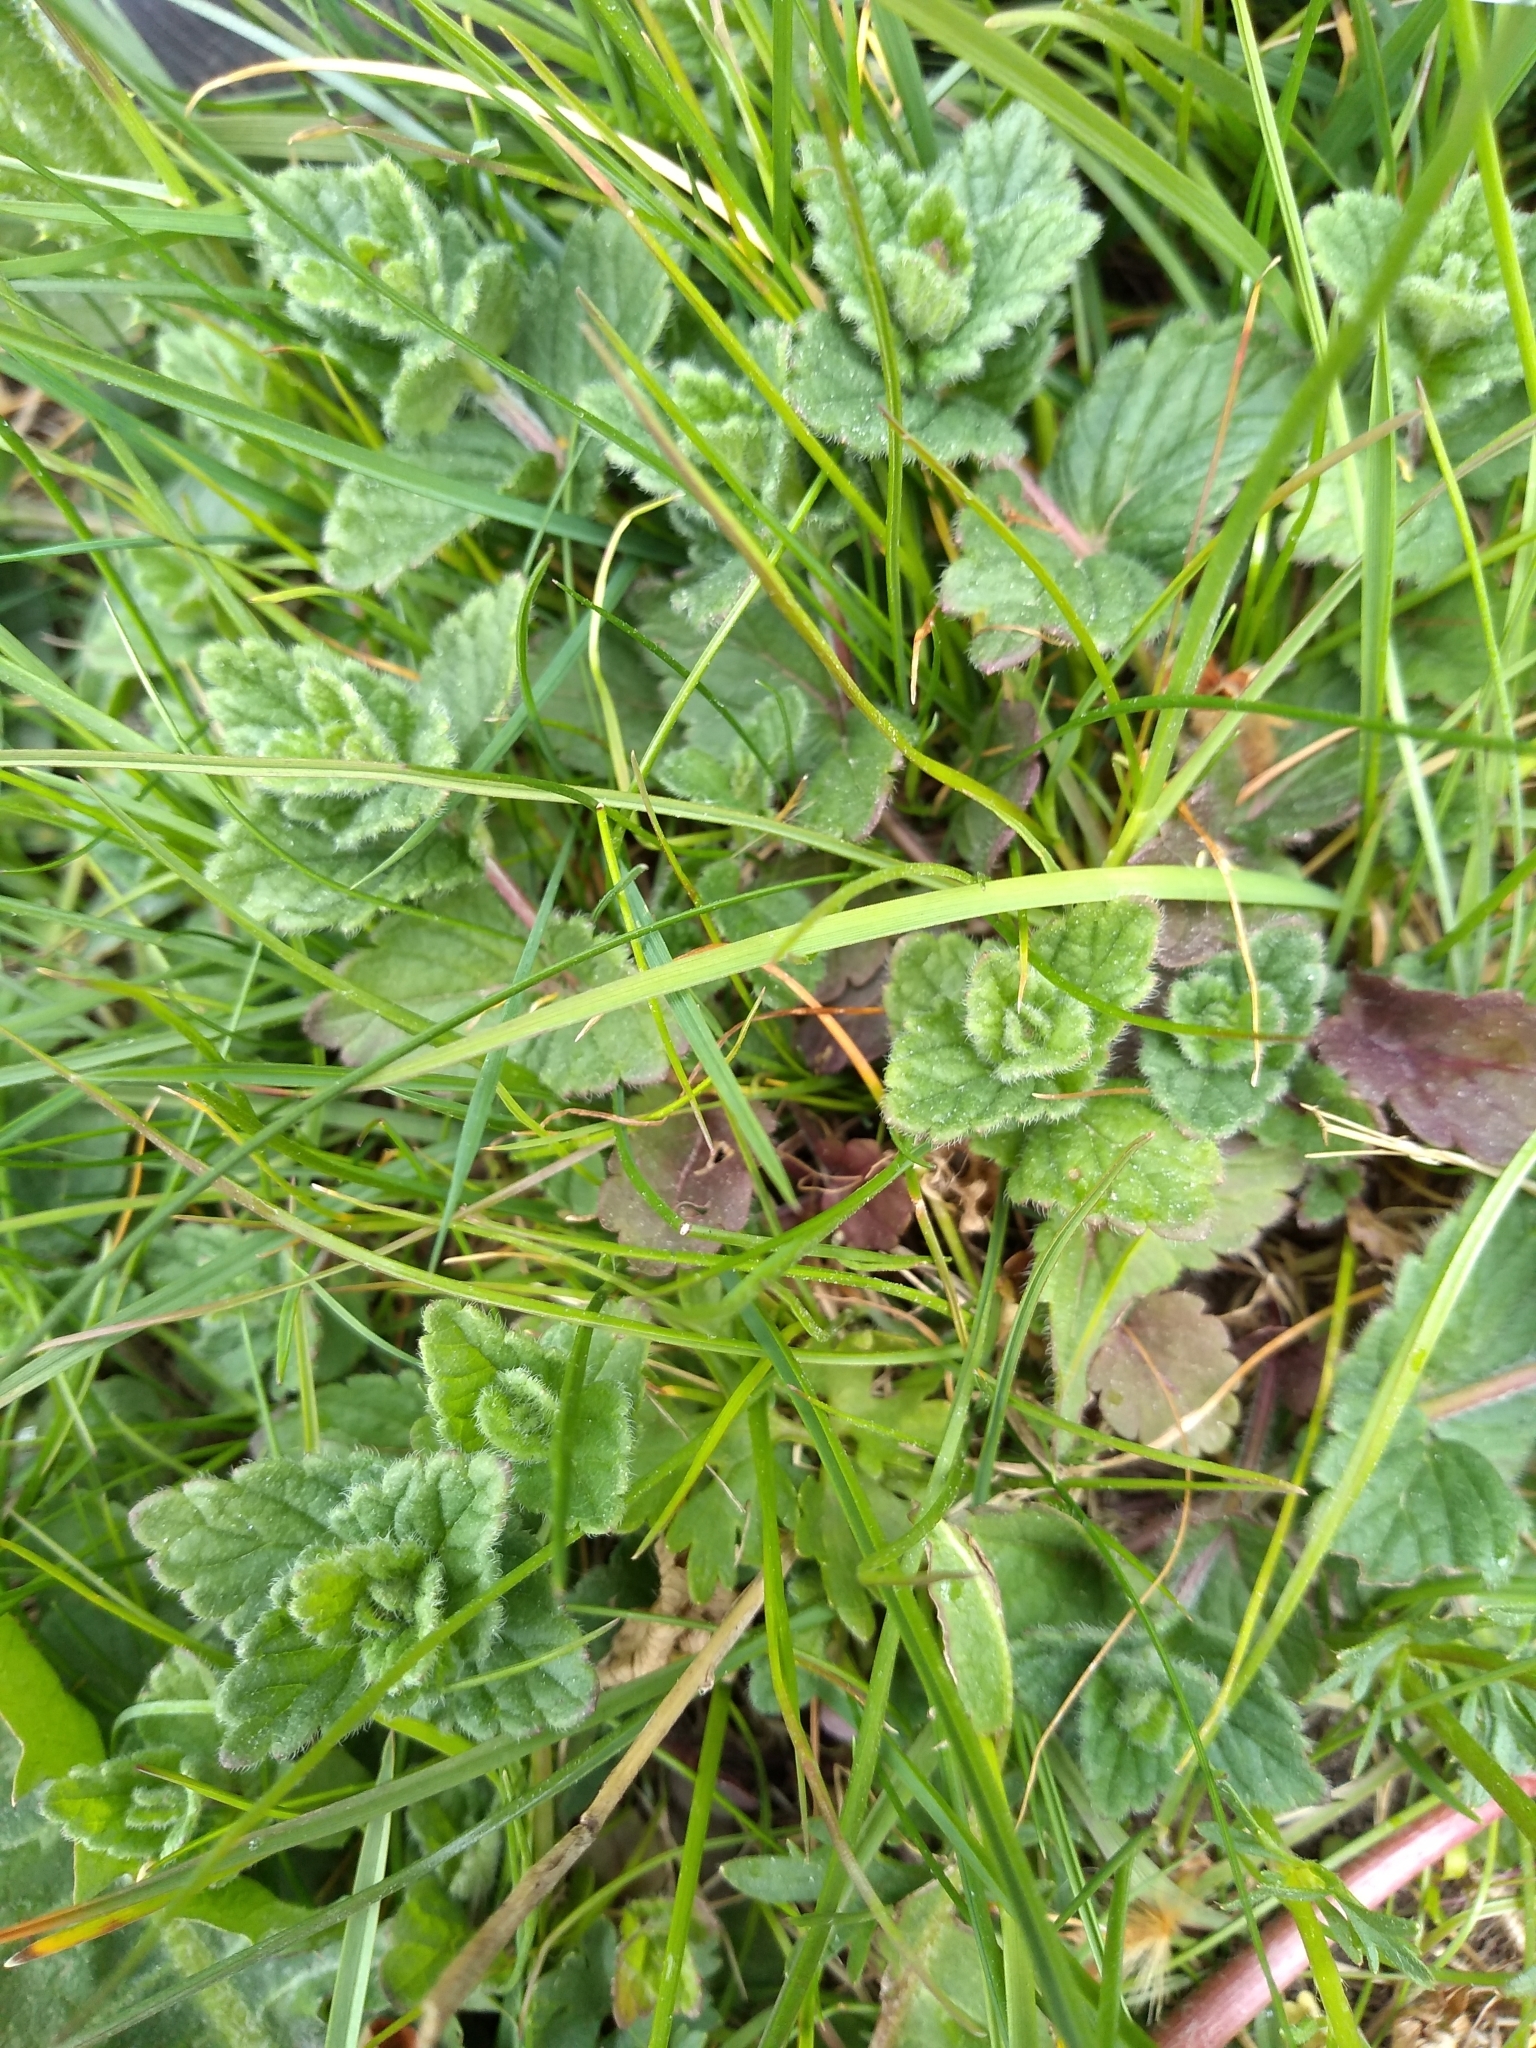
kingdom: Plantae
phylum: Tracheophyta
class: Magnoliopsida
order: Lamiales
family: Plantaginaceae
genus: Veronica
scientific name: Veronica chamaedrys
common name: Germander speedwell
